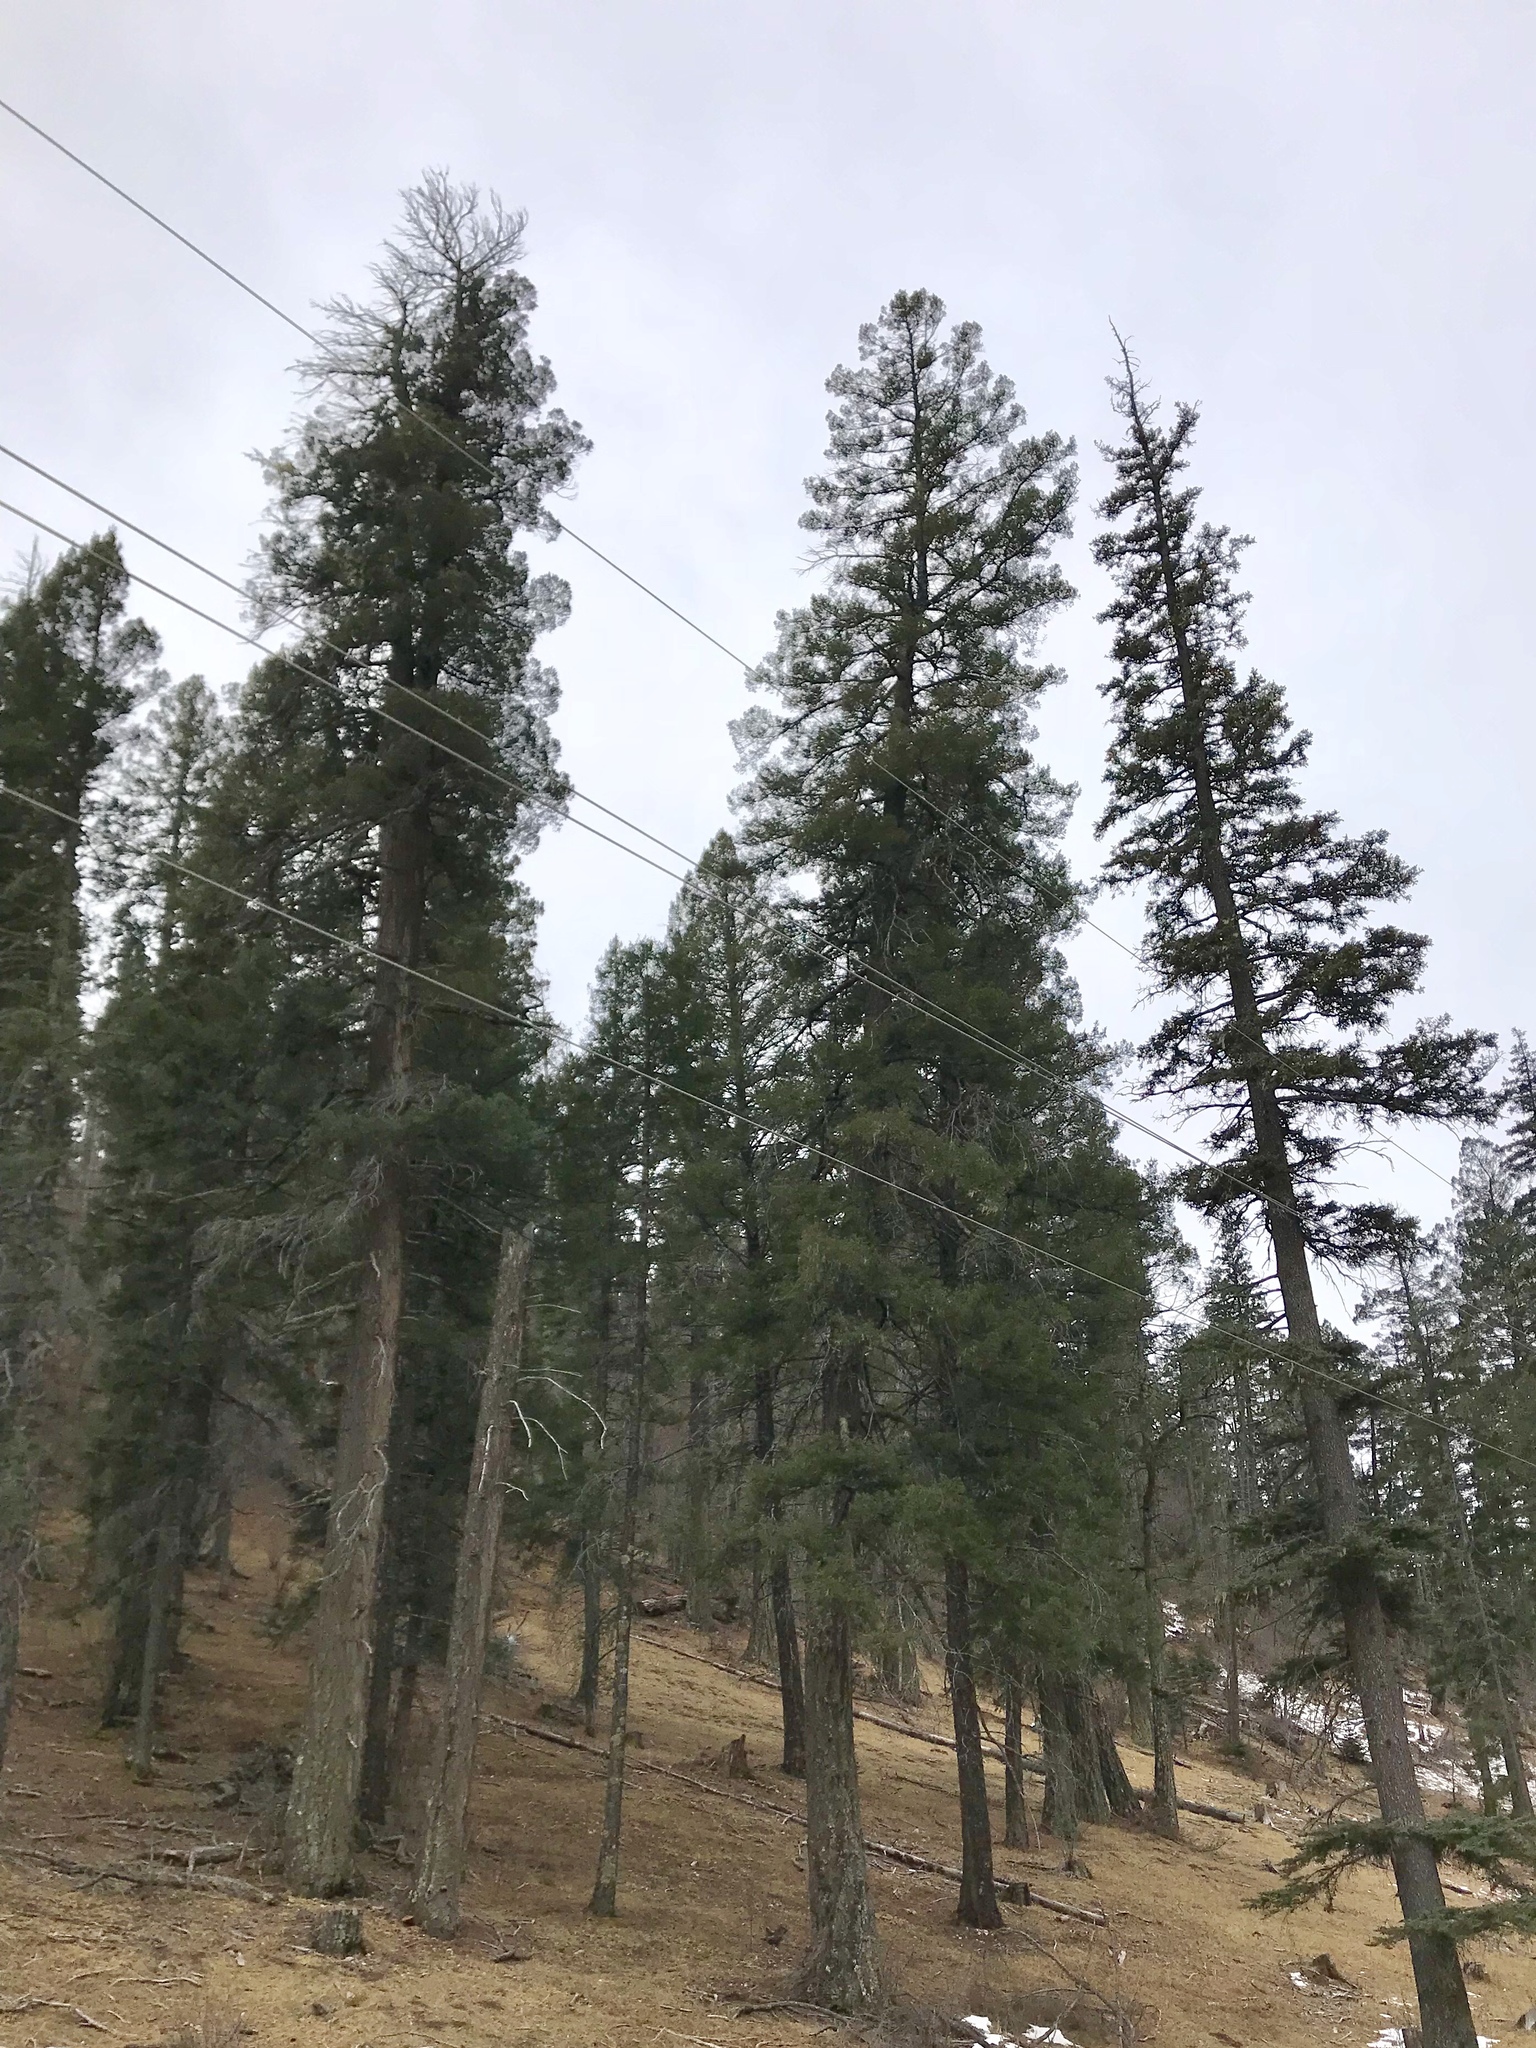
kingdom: Plantae
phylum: Tracheophyta
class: Pinopsida
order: Pinales
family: Pinaceae
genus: Pseudotsuga
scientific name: Pseudotsuga menziesii
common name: Douglas fir
